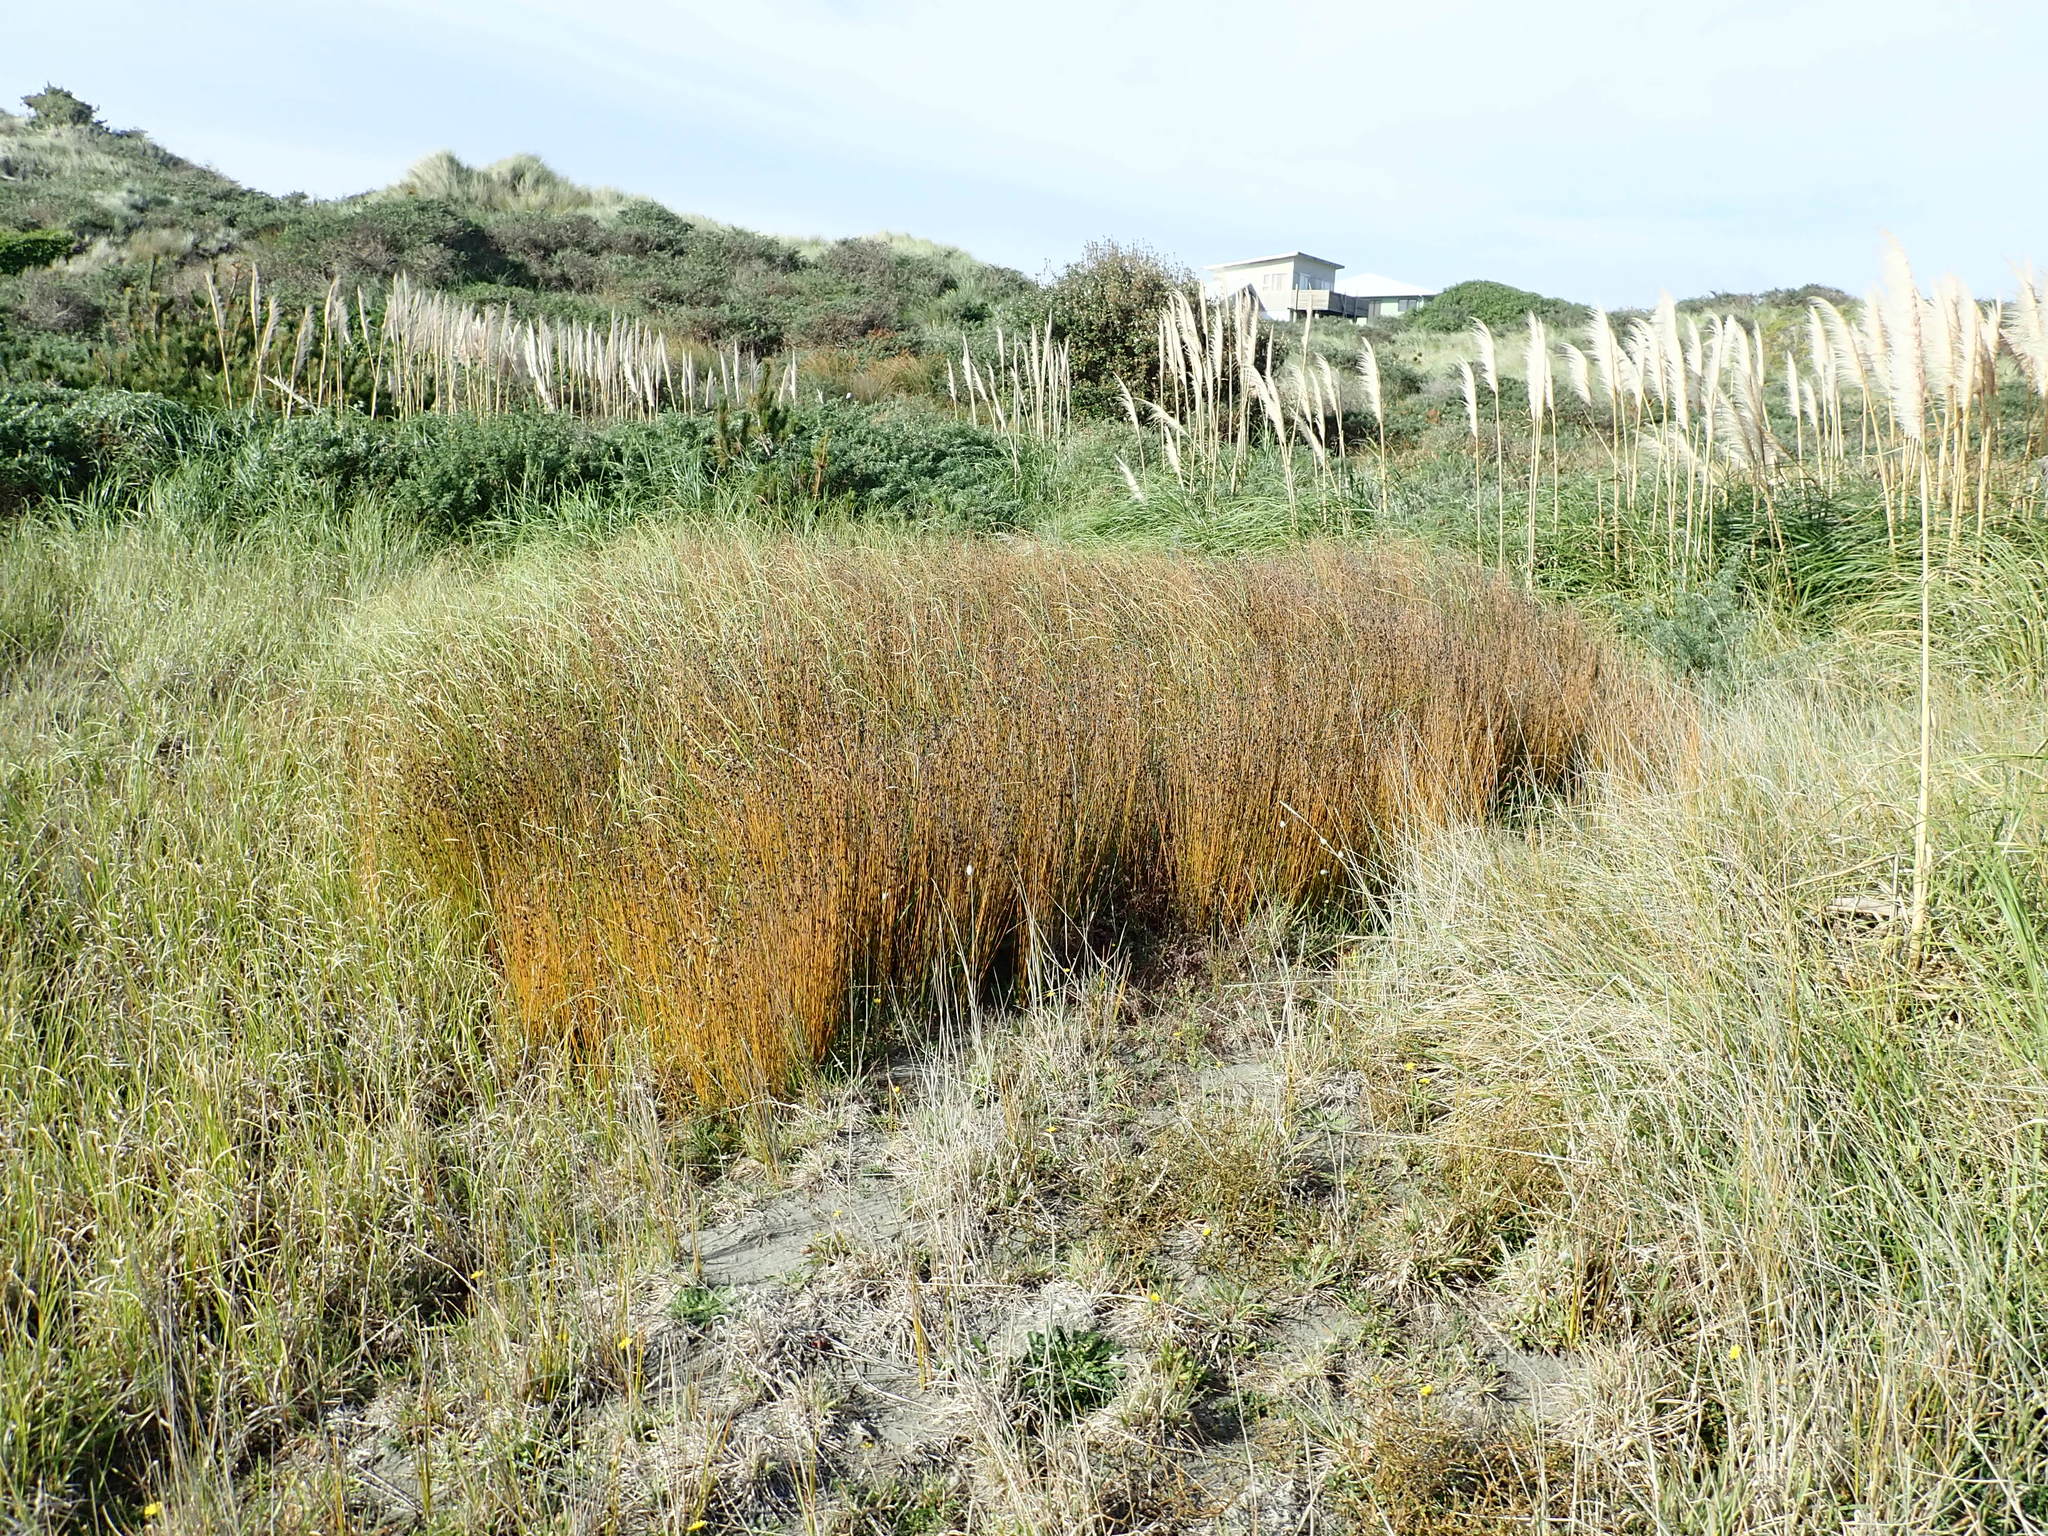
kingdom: Plantae
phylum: Tracheophyta
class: Liliopsida
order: Poales
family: Restionaceae
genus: Apodasmia
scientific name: Apodasmia similis
